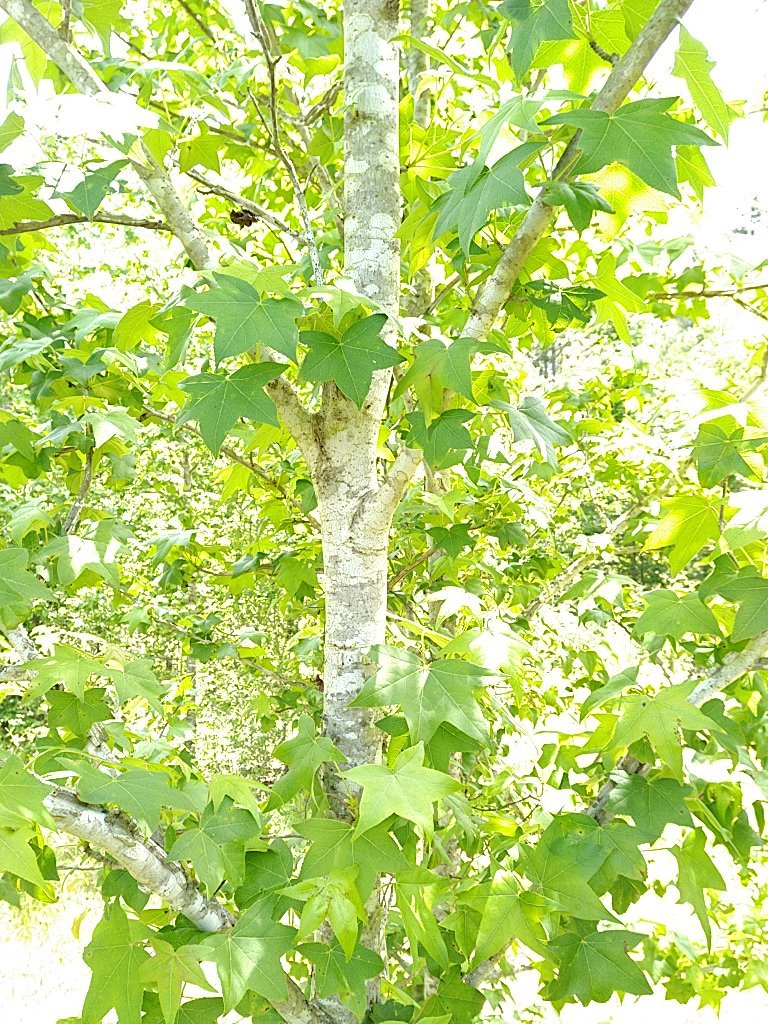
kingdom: Plantae
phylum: Tracheophyta
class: Magnoliopsida
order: Saxifragales
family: Altingiaceae
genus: Liquidambar
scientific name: Liquidambar styraciflua
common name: Sweet gum
